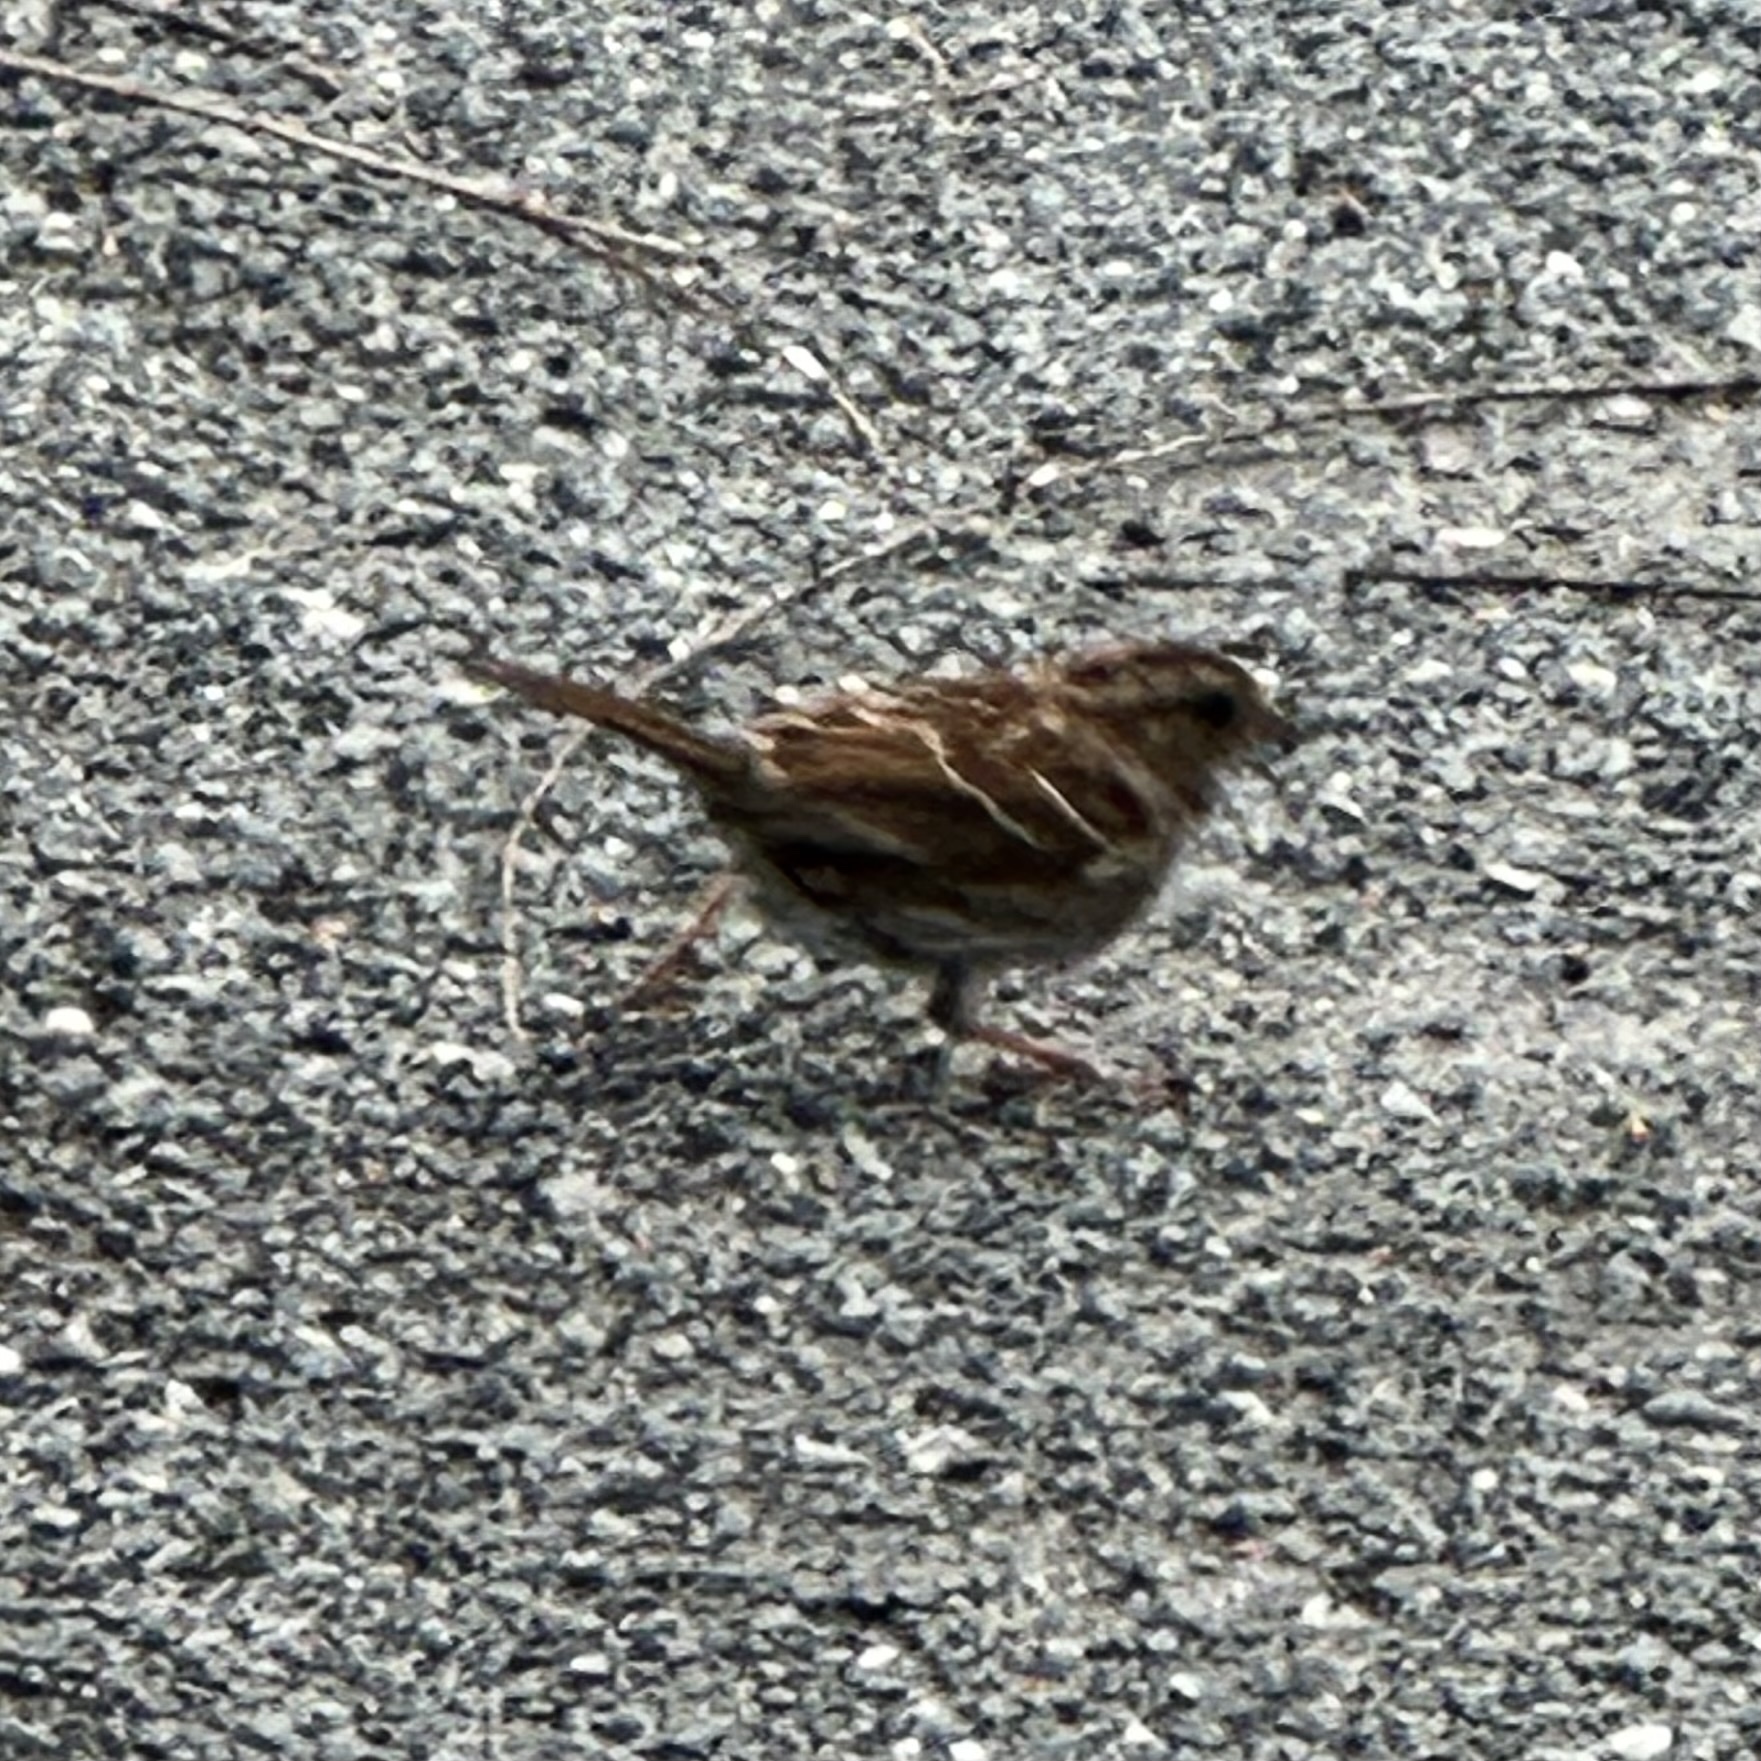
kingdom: Animalia
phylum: Chordata
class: Aves
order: Passeriformes
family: Passerellidae
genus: Zonotrichia
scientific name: Zonotrichia albicollis
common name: White-throated sparrow
